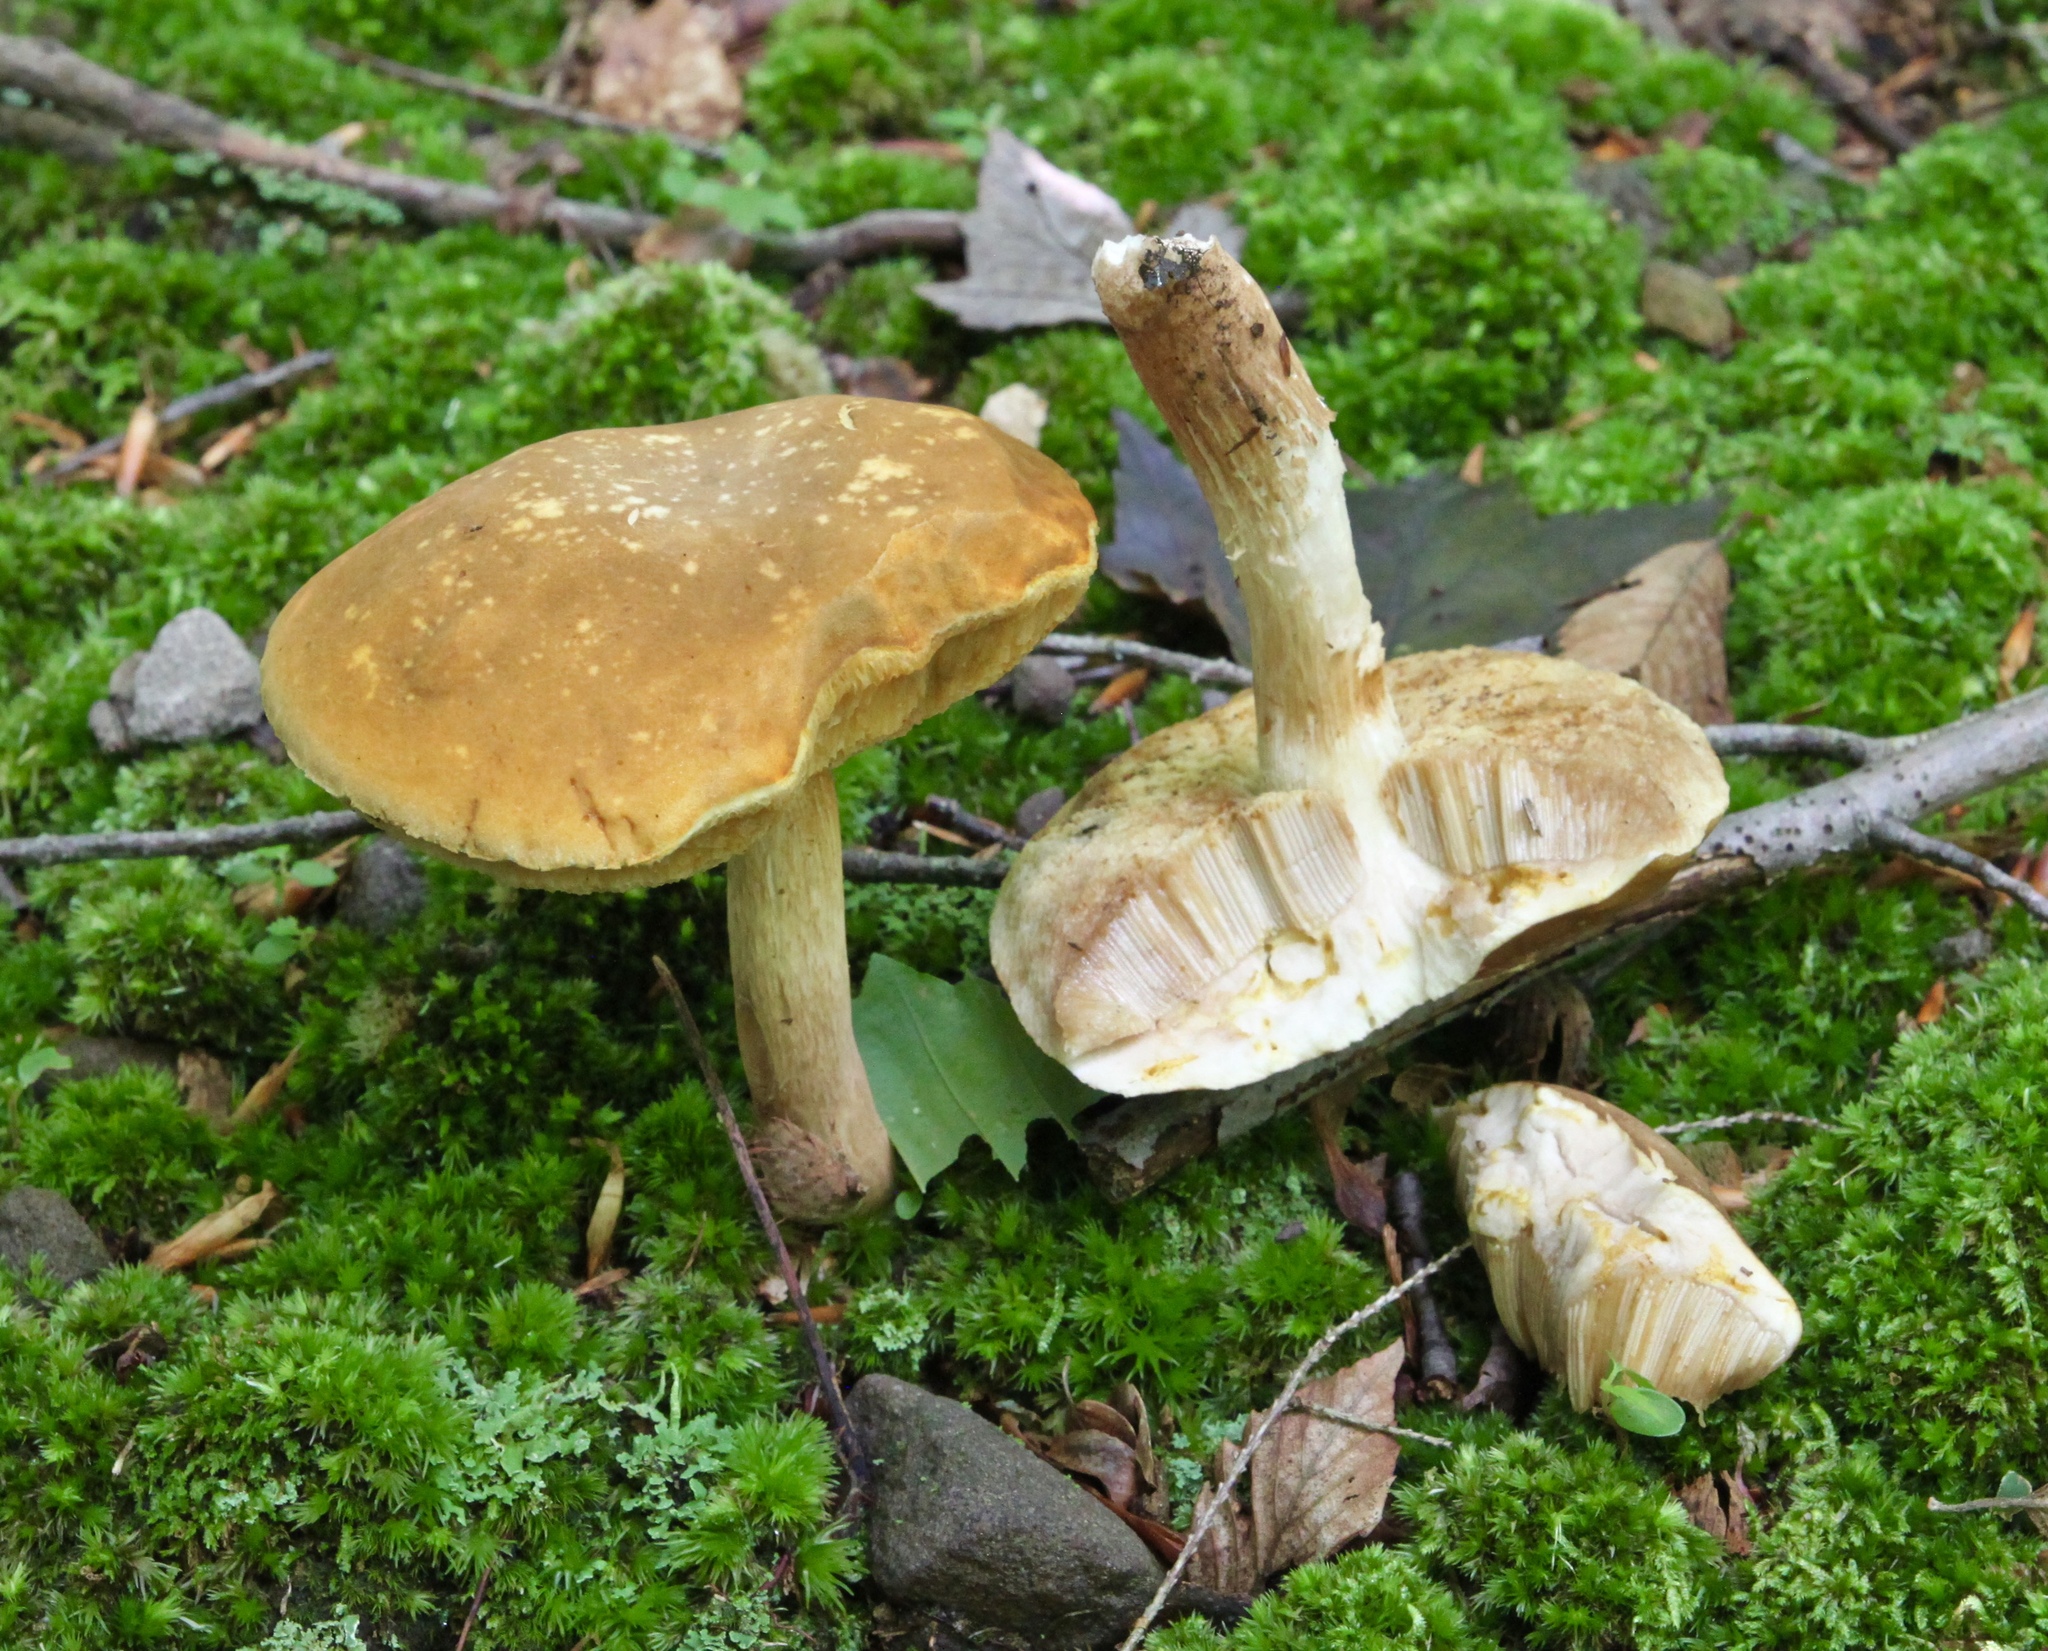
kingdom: Fungi
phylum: Basidiomycota
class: Agaricomycetes
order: Boletales
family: Boletaceae
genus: Xanthoconium
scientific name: Xanthoconium affine
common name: Spotted bolete
